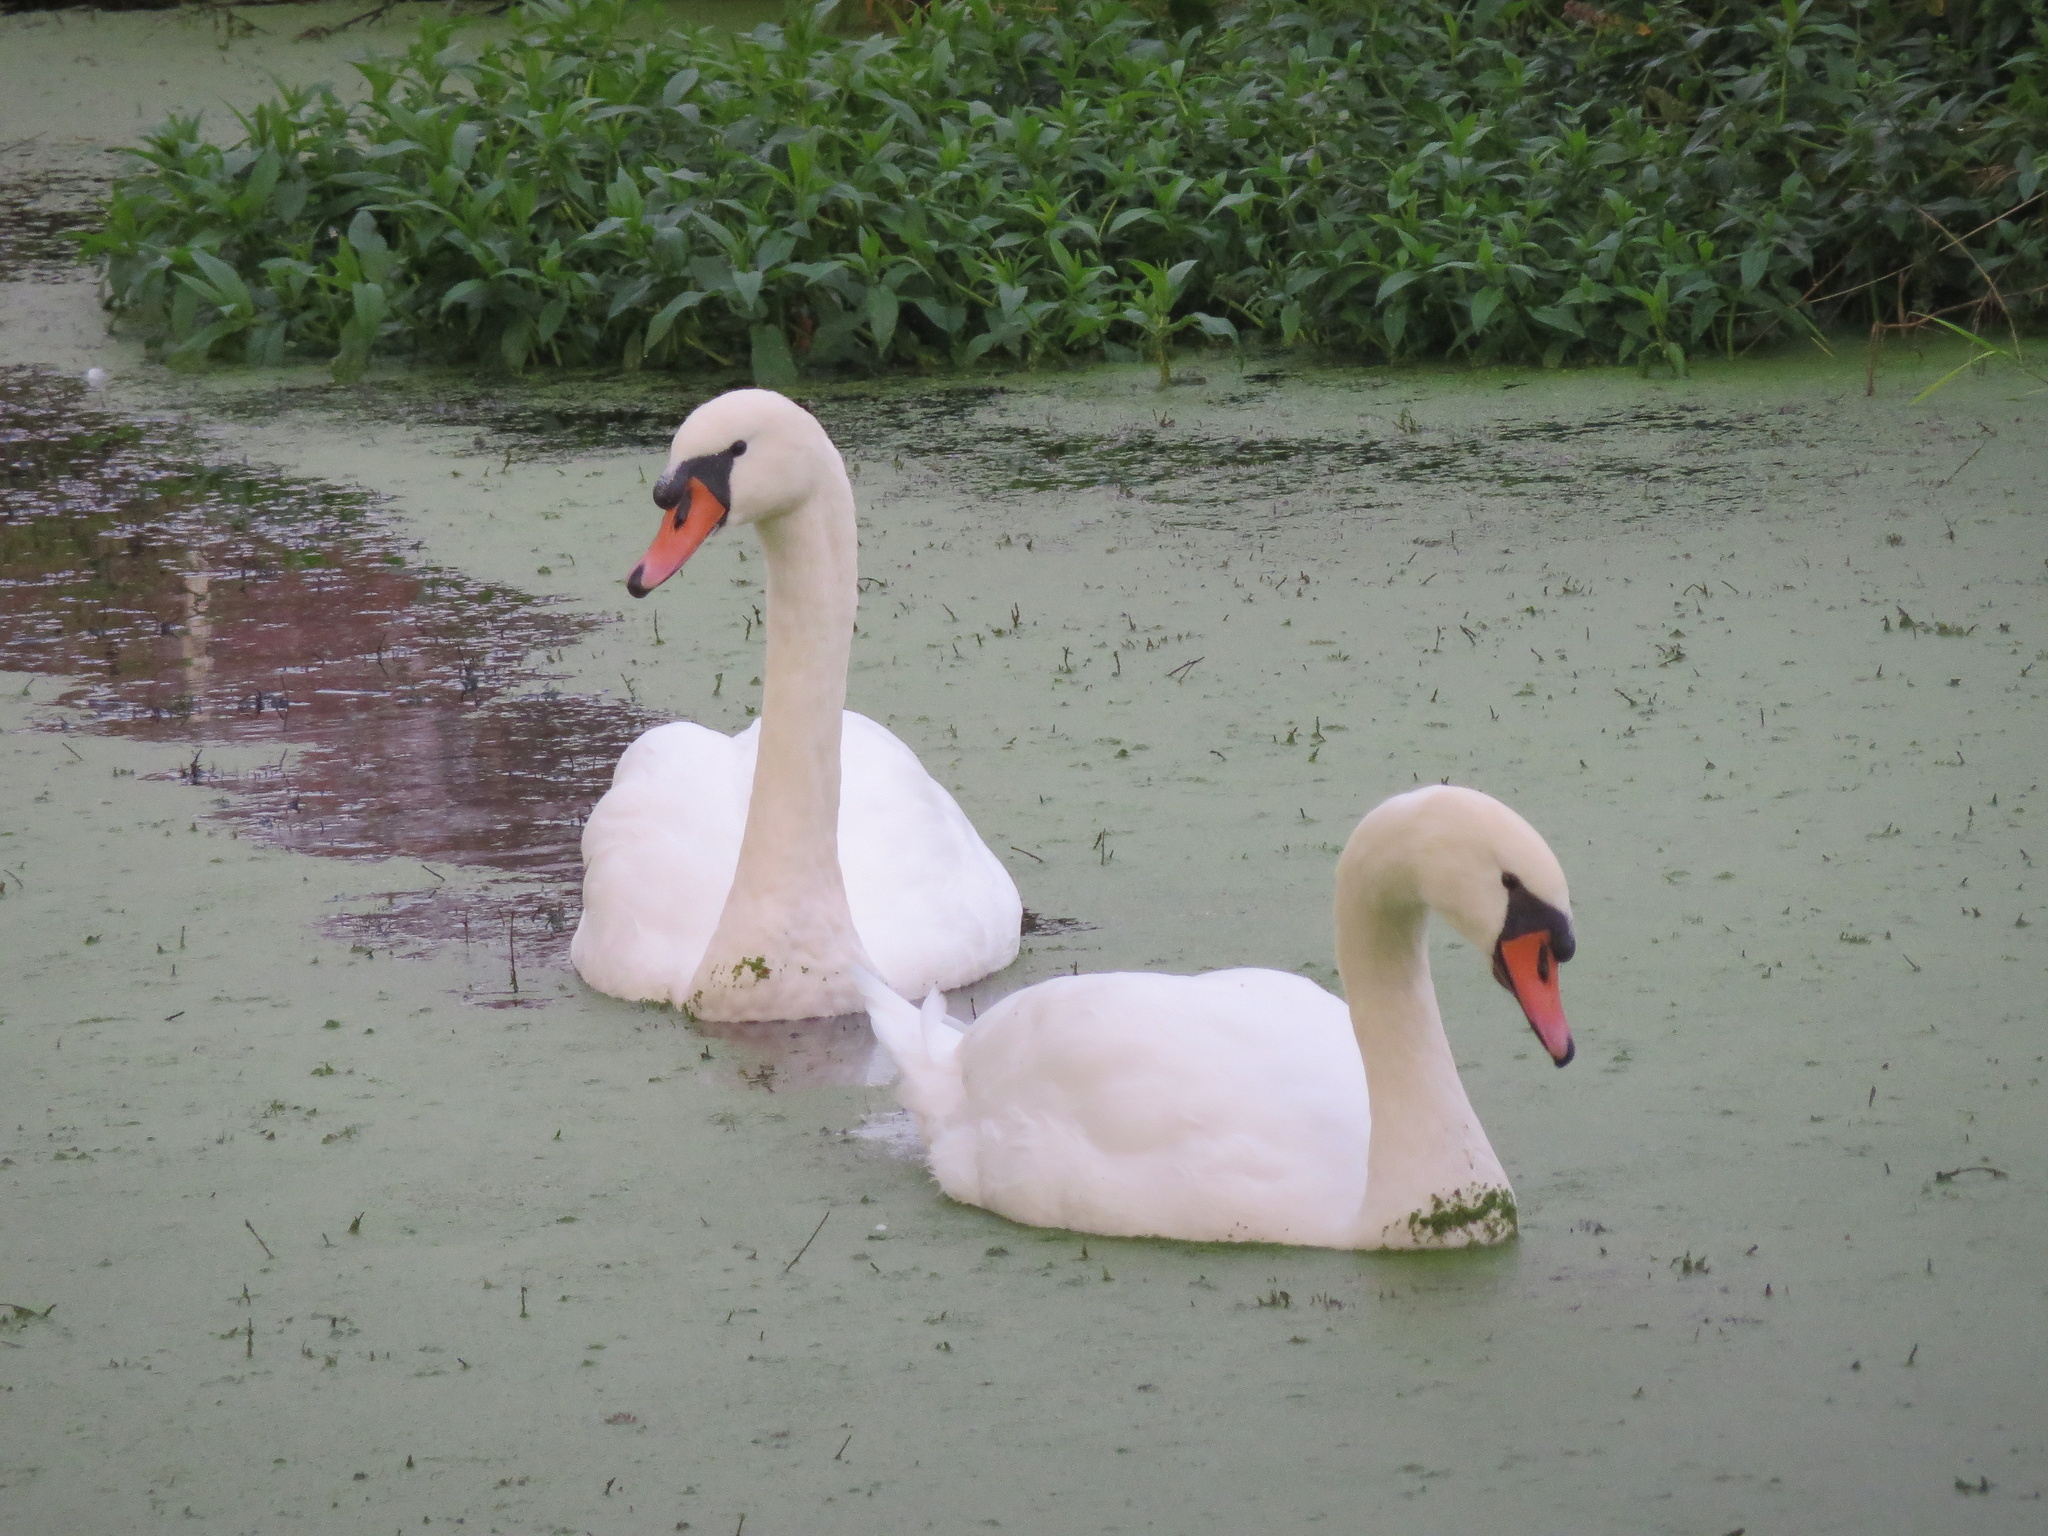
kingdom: Animalia
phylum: Chordata
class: Aves
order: Anseriformes
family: Anatidae
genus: Cygnus
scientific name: Cygnus olor
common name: Mute swan
